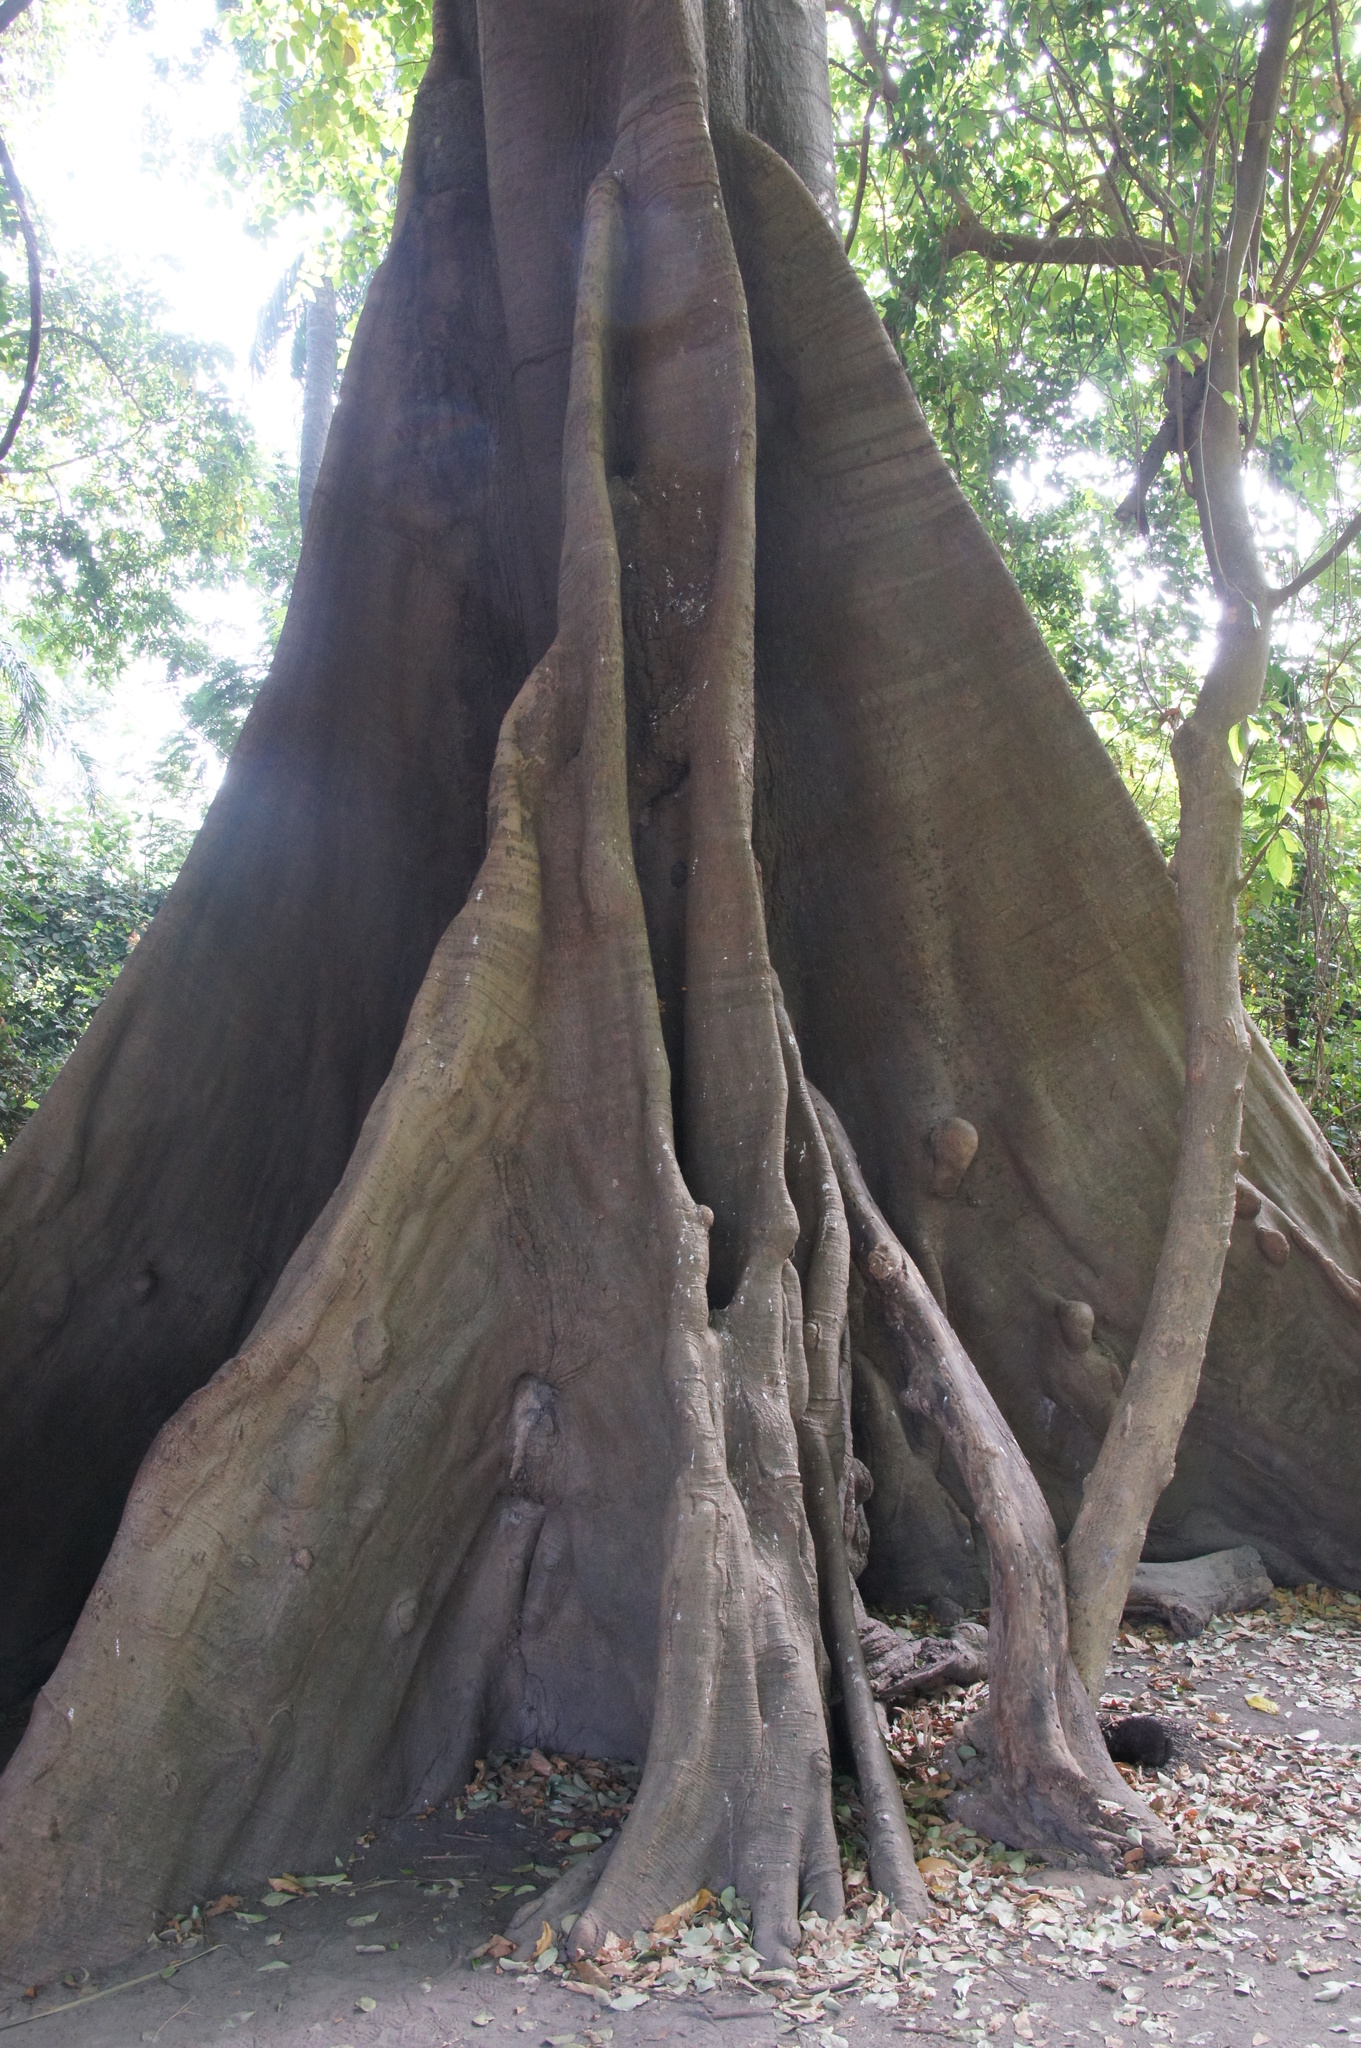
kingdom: Plantae
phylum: Tracheophyta
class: Magnoliopsida
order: Malvales
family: Malvaceae
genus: Ceiba
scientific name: Ceiba pentandra
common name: Kapok
